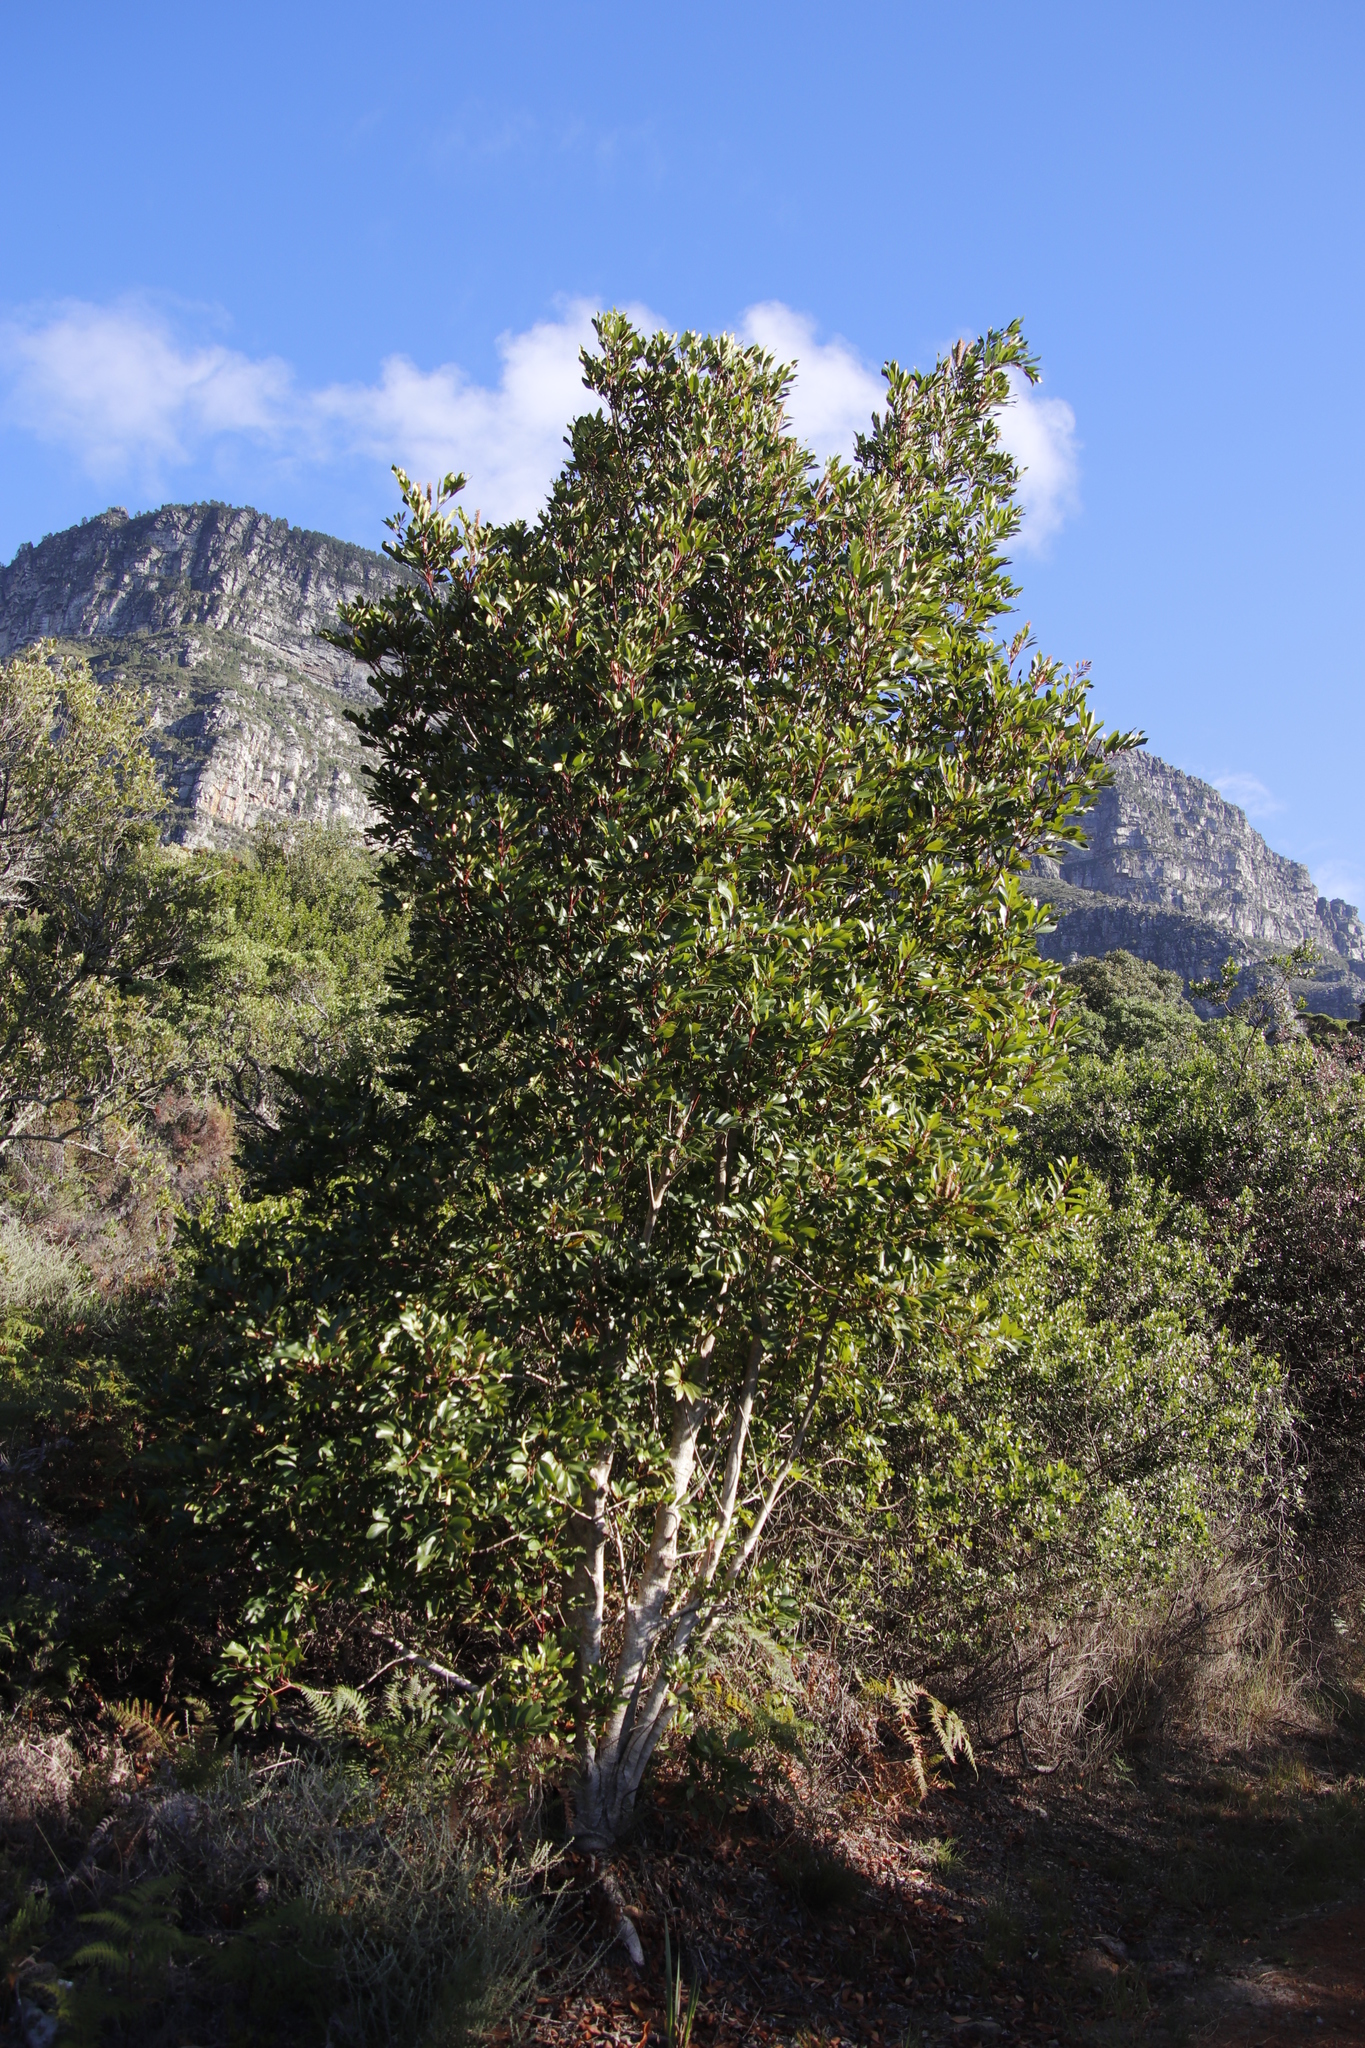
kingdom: Plantae
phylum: Tracheophyta
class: Magnoliopsida
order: Oxalidales
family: Cunoniaceae
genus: Cunonia
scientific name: Cunonia capensis
